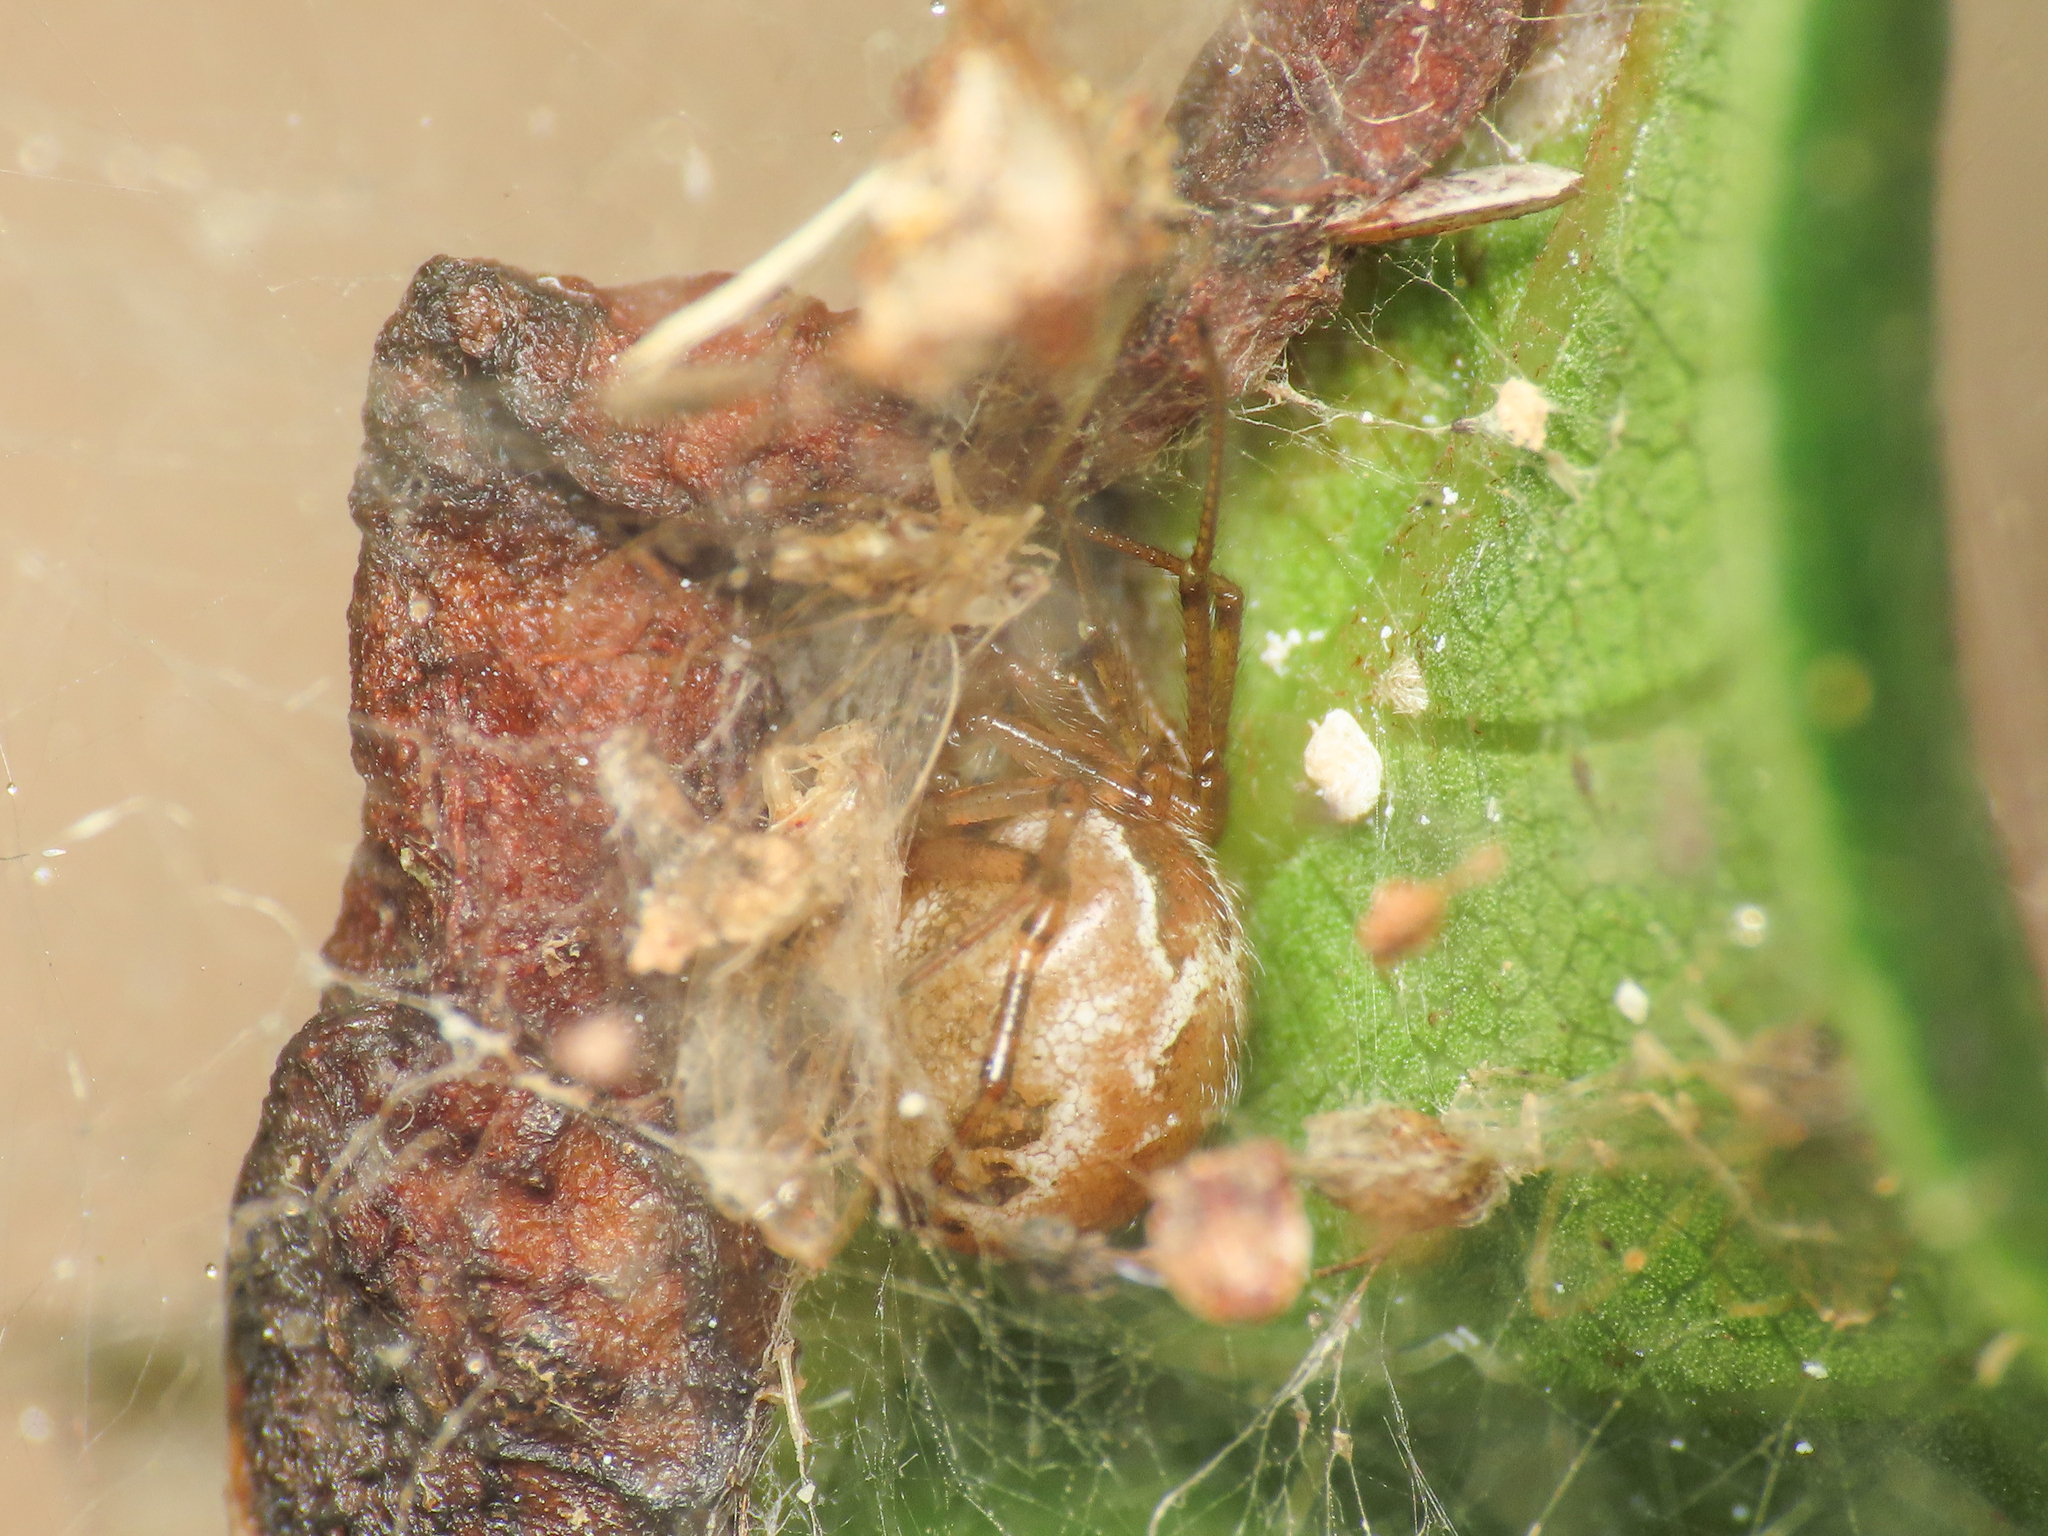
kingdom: Animalia
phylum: Arthropoda
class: Arachnida
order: Araneae
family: Theridiidae
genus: Kochiura
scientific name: Kochiura aulica
